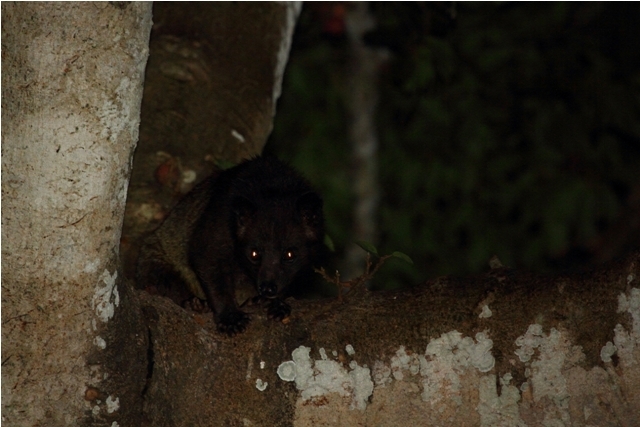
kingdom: Animalia
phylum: Chordata
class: Mammalia
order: Carnivora
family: Viverridae
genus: Paradoxurus
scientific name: Paradoxurus jerdoni
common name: Jerdon's palm civet
